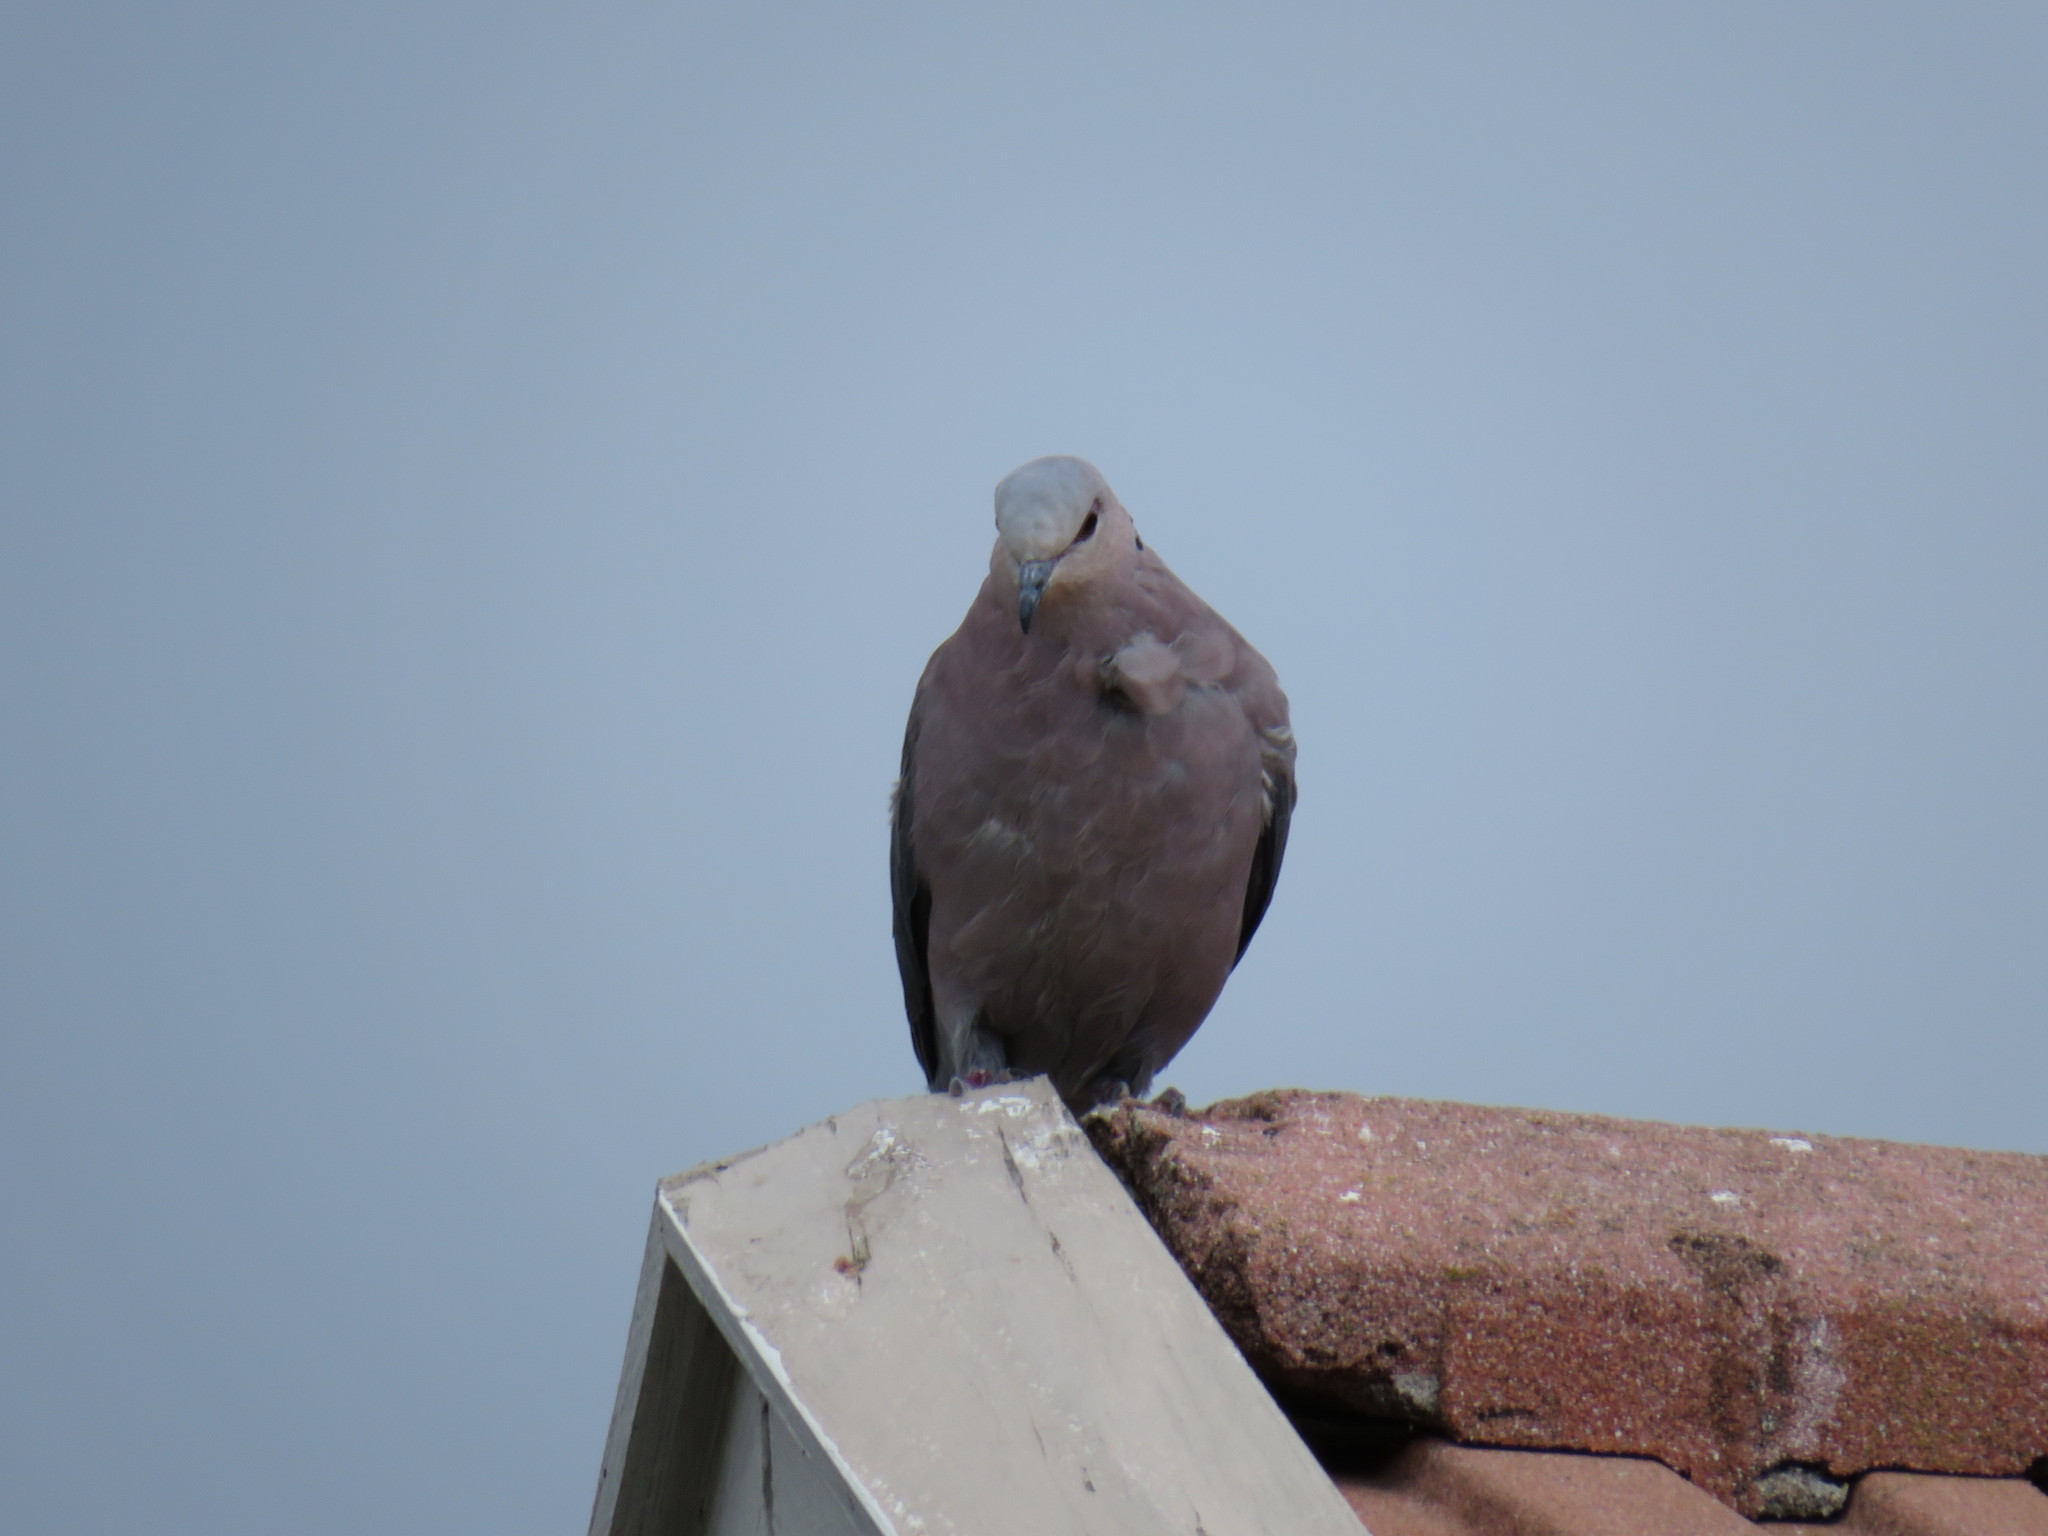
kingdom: Animalia
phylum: Chordata
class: Aves
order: Columbiformes
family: Columbidae
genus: Streptopelia
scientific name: Streptopelia semitorquata
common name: Red-eyed dove
